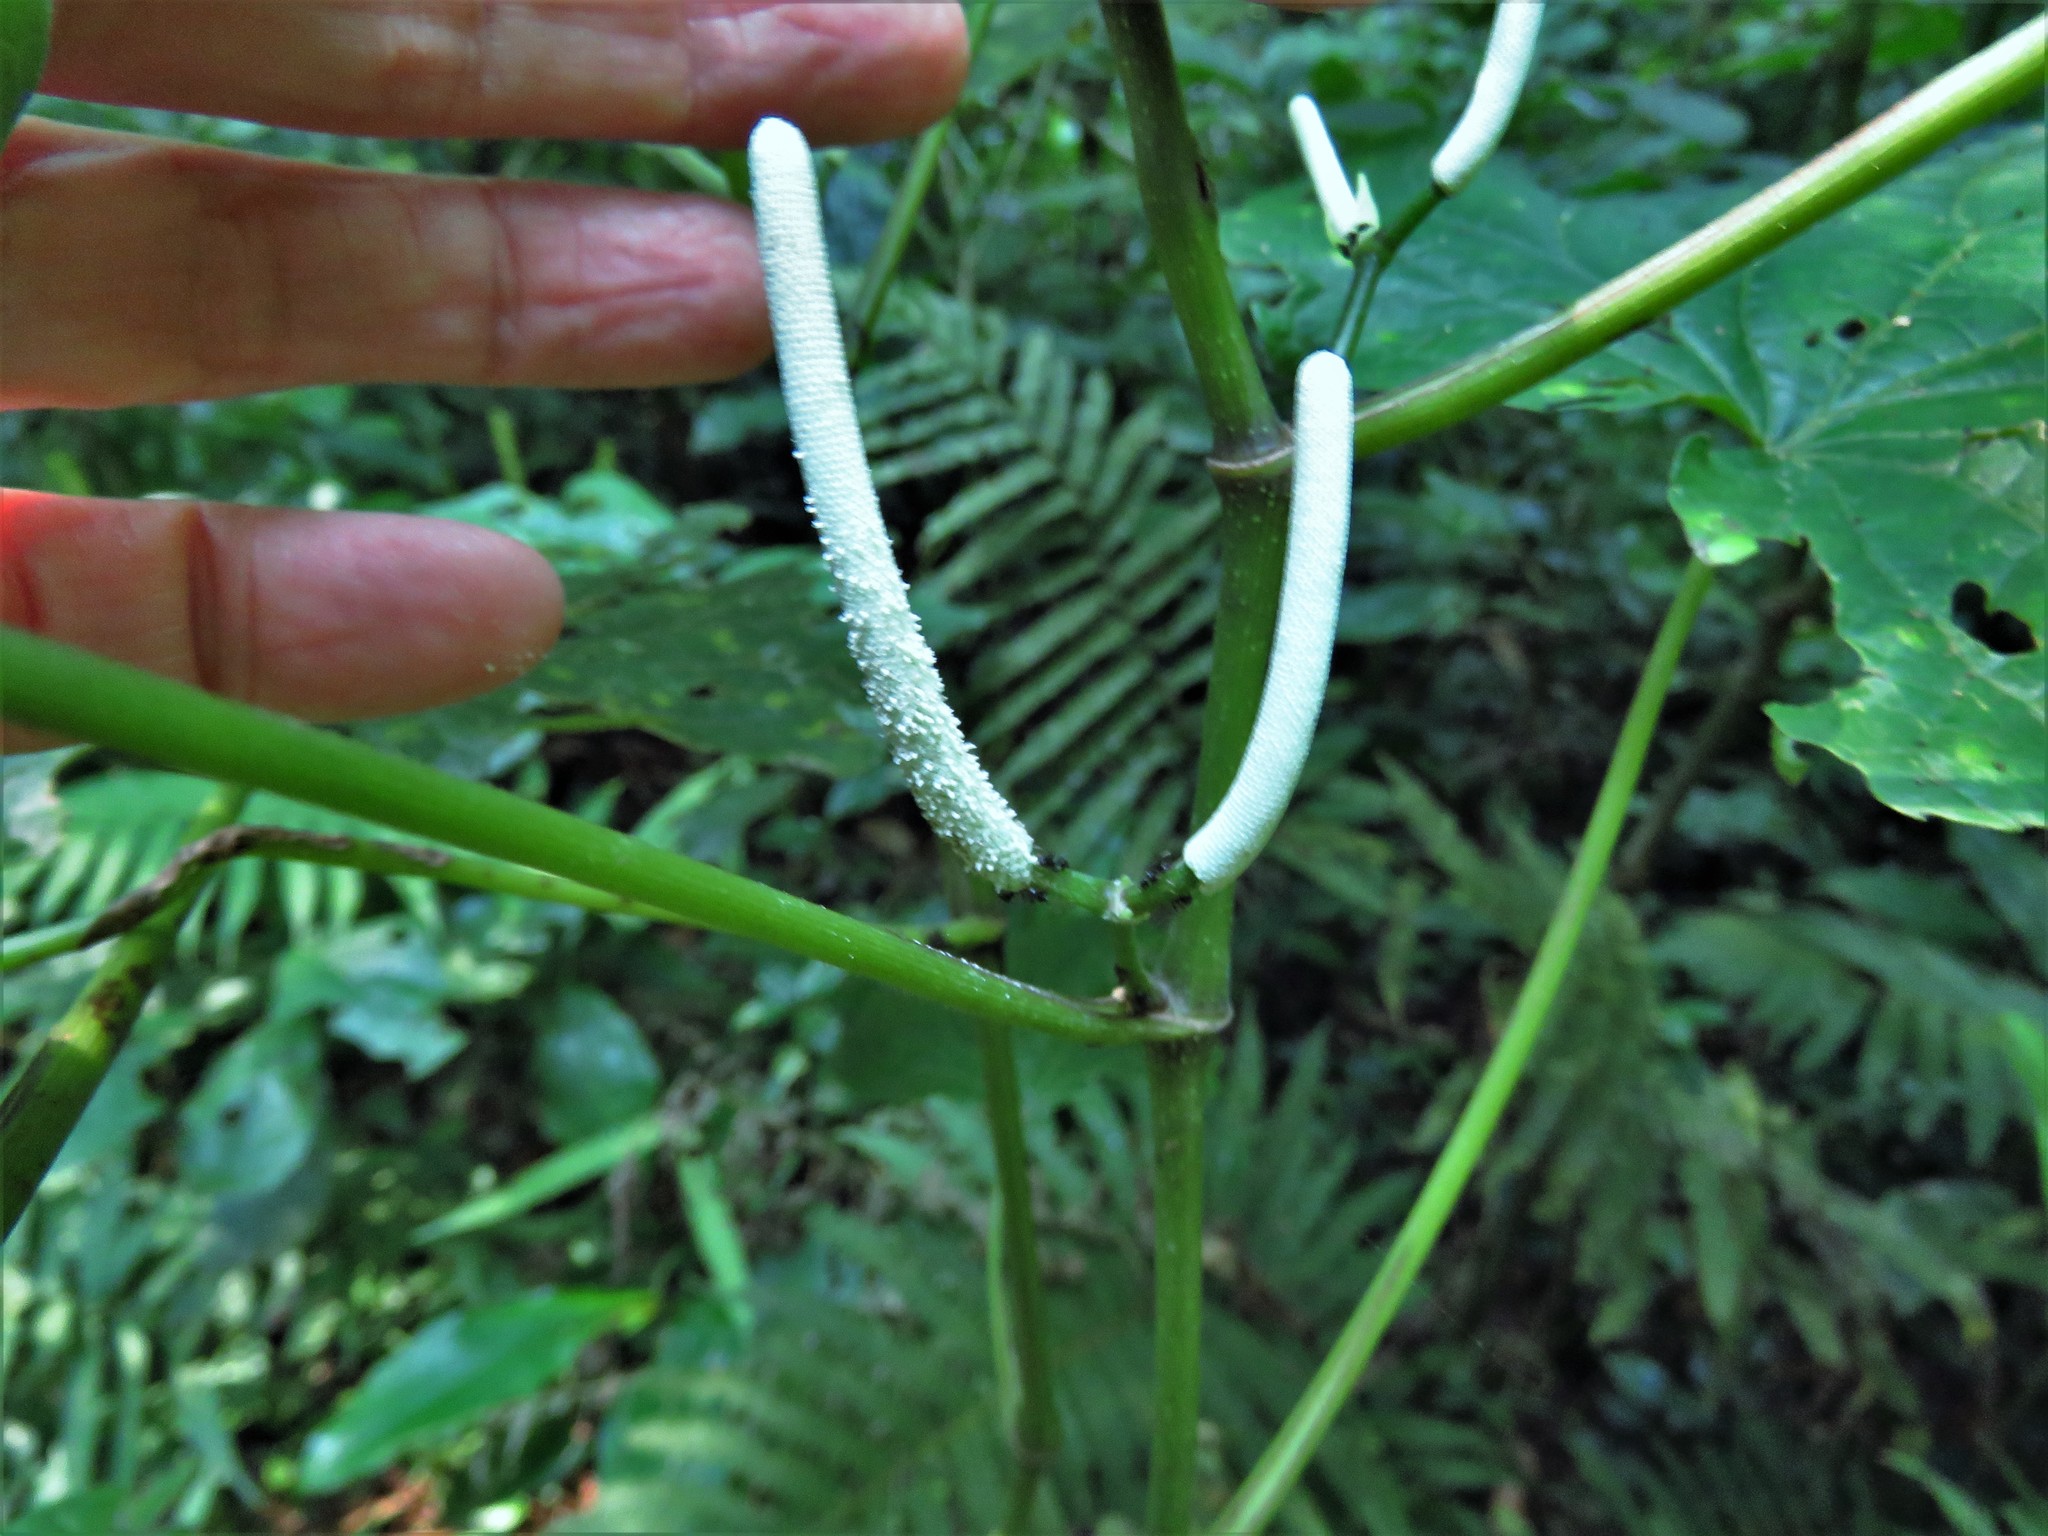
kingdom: Plantae
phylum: Tracheophyta
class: Magnoliopsida
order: Piperales
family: Piperaceae
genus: Piper
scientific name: Piper umbellatum
